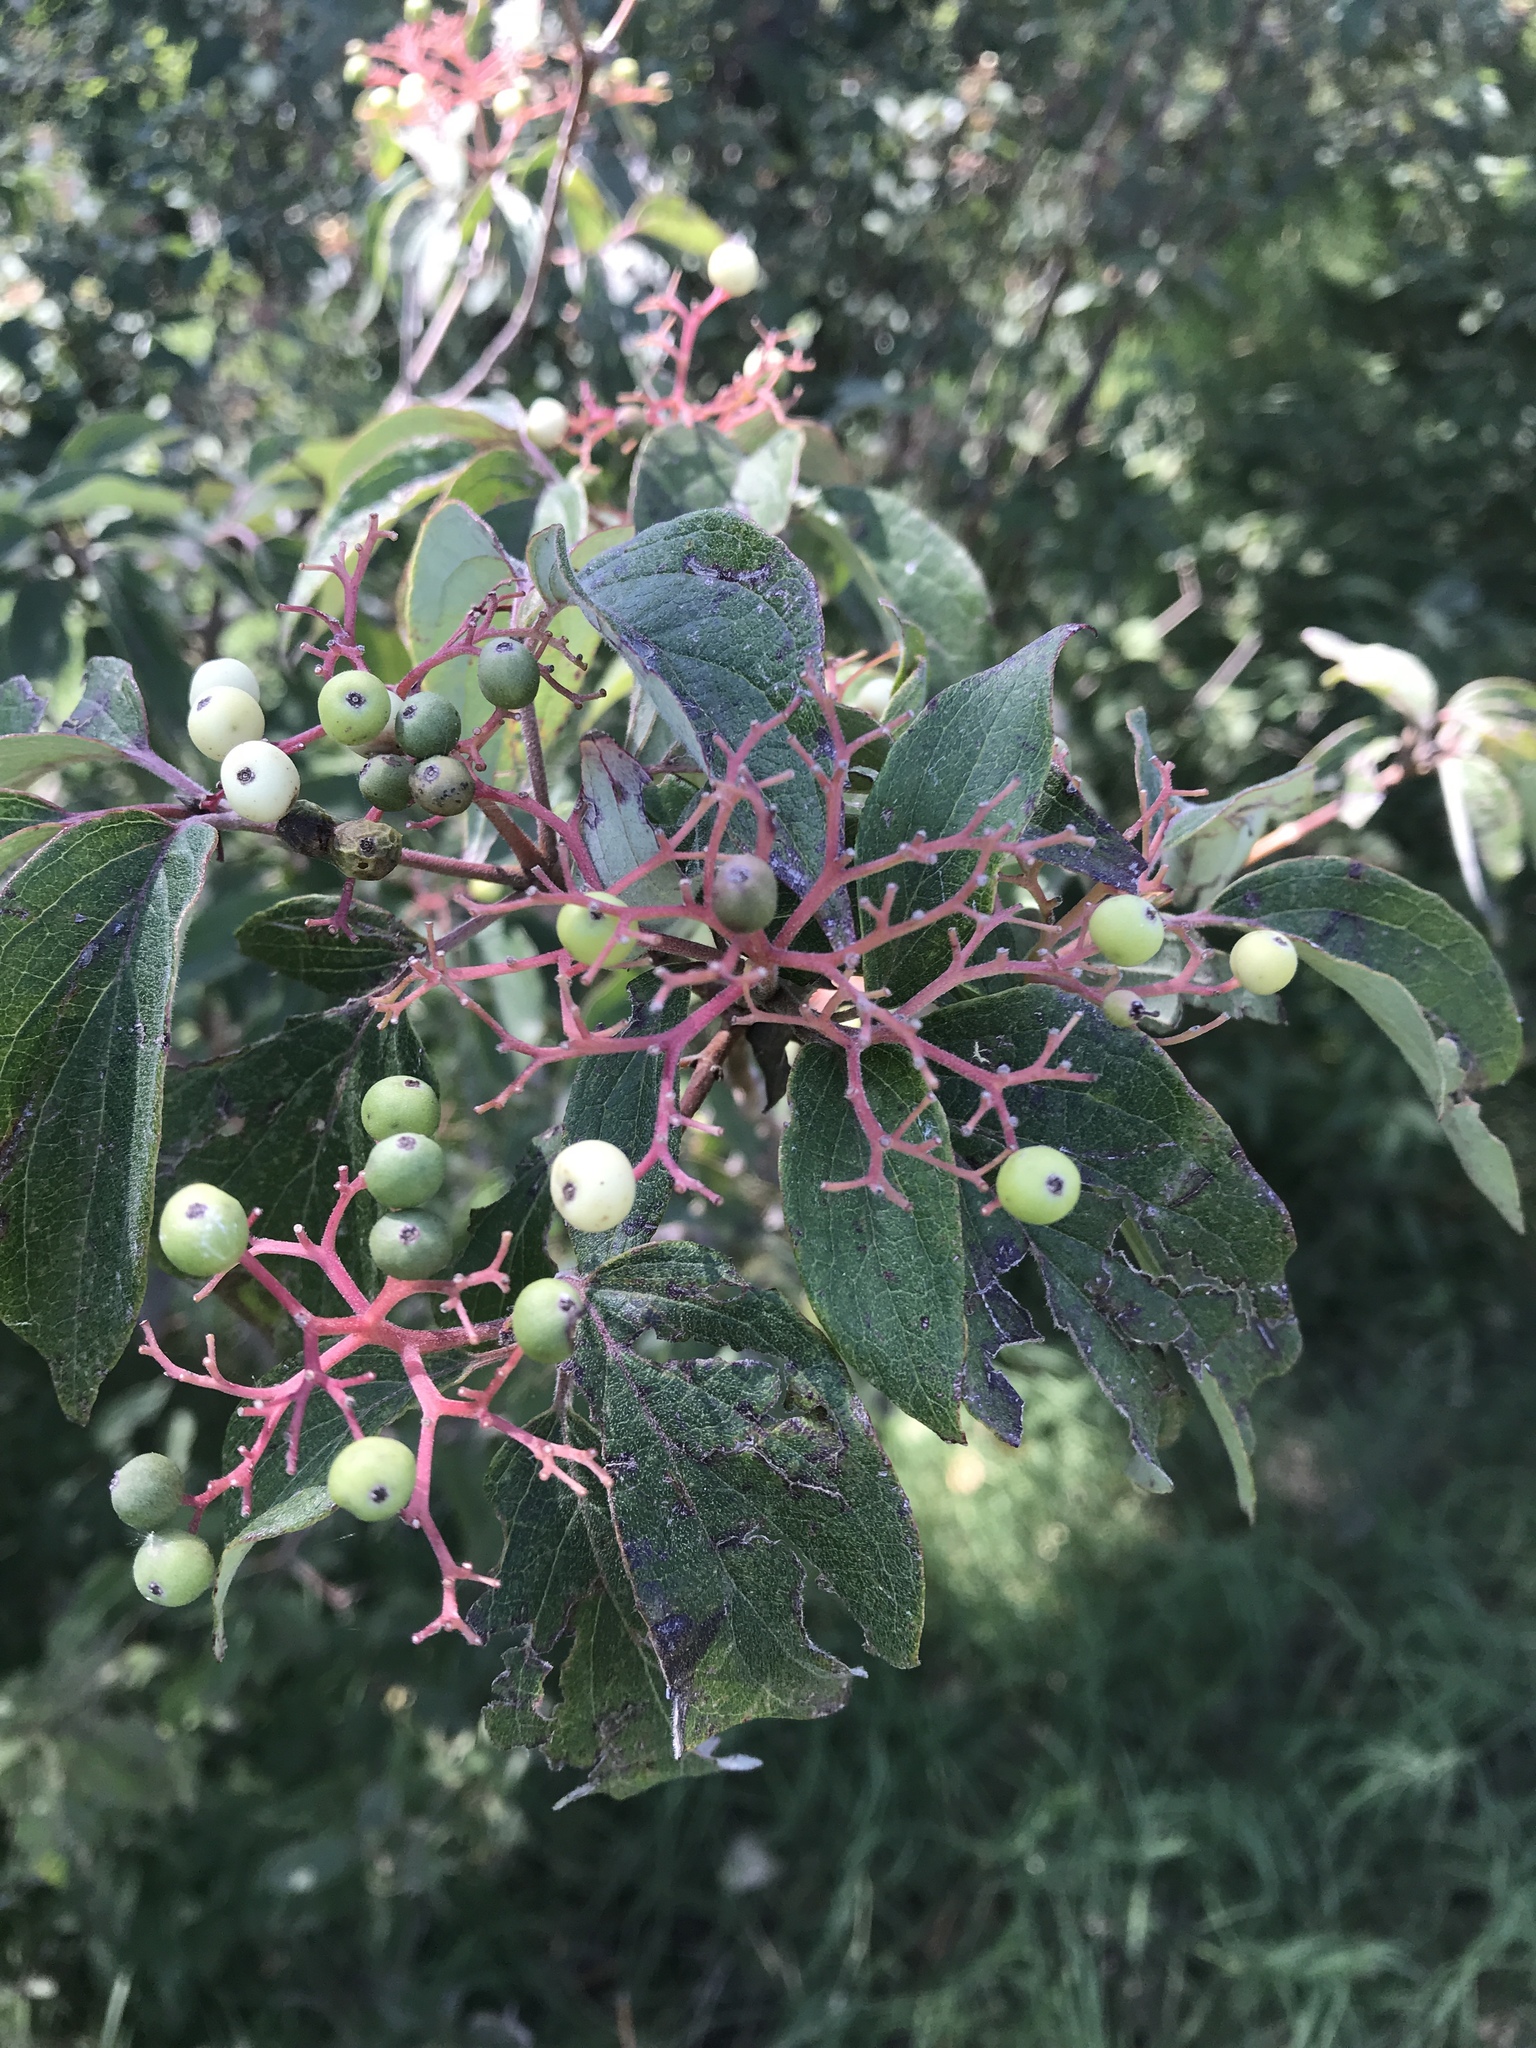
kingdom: Plantae
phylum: Tracheophyta
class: Magnoliopsida
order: Cornales
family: Cornaceae
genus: Cornus
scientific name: Cornus drummondii
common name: Rough-leaf dogwood
